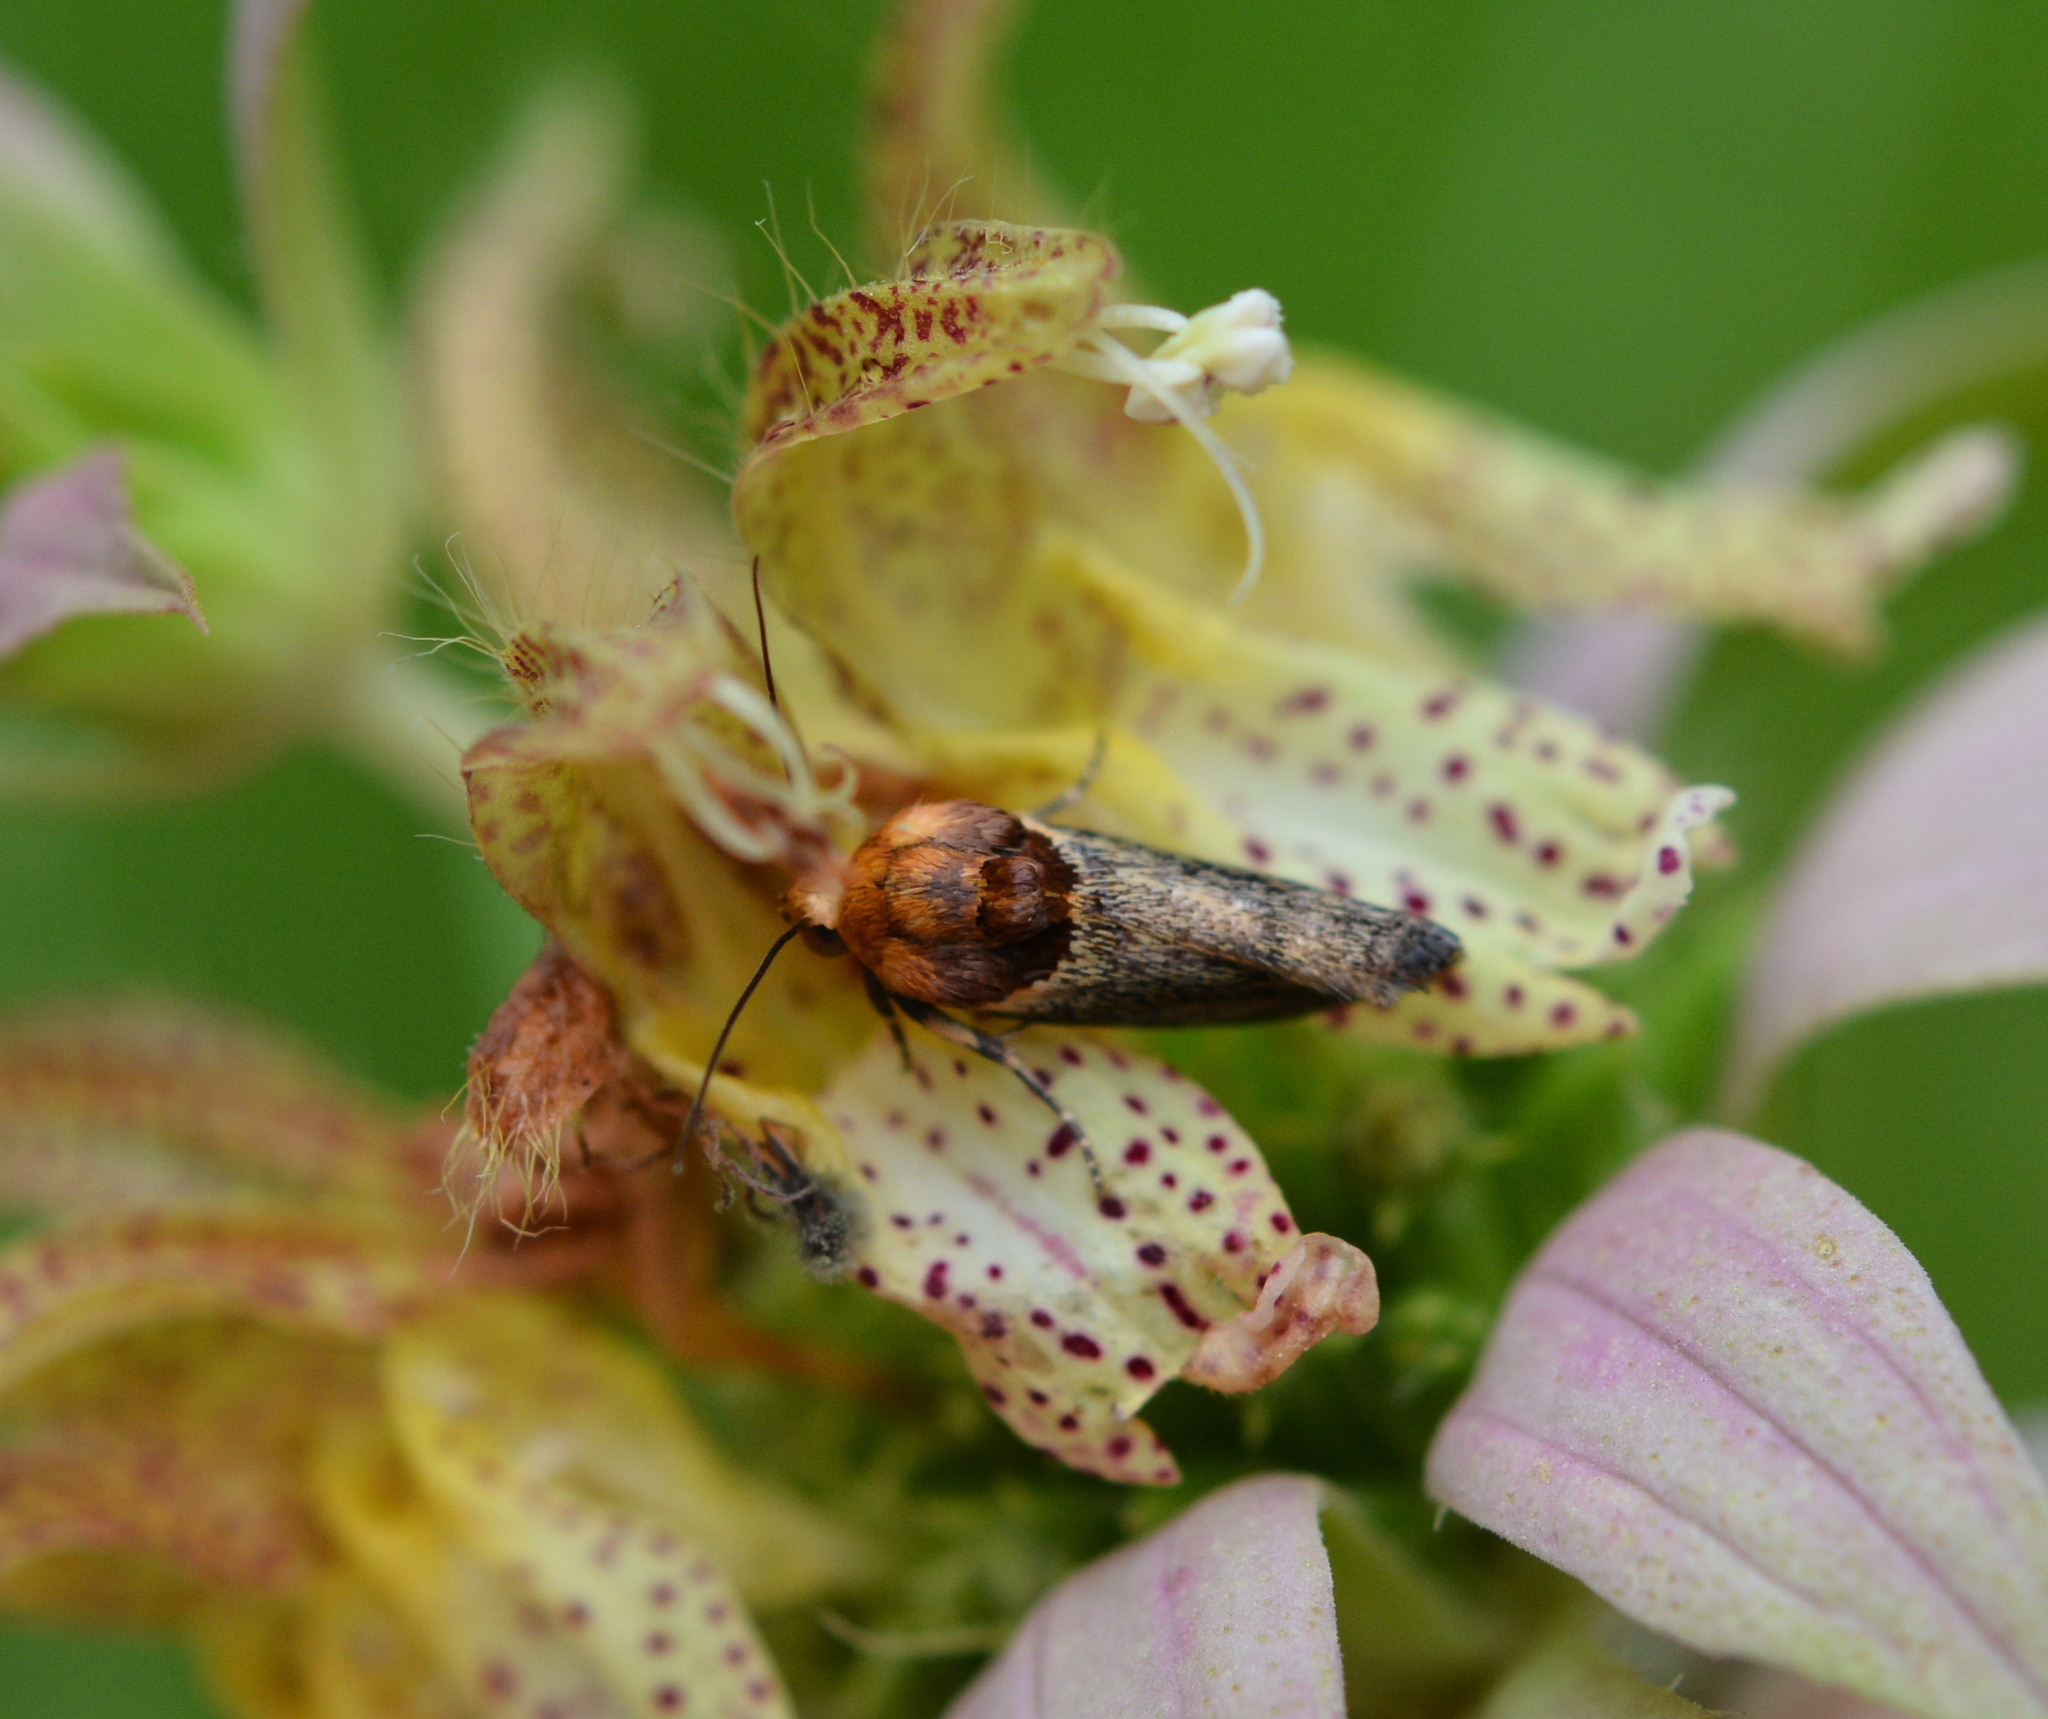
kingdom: Animalia
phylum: Arthropoda
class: Insecta
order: Lepidoptera
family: Noctuidae
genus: Spragueia
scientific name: Spragueia apicalis
